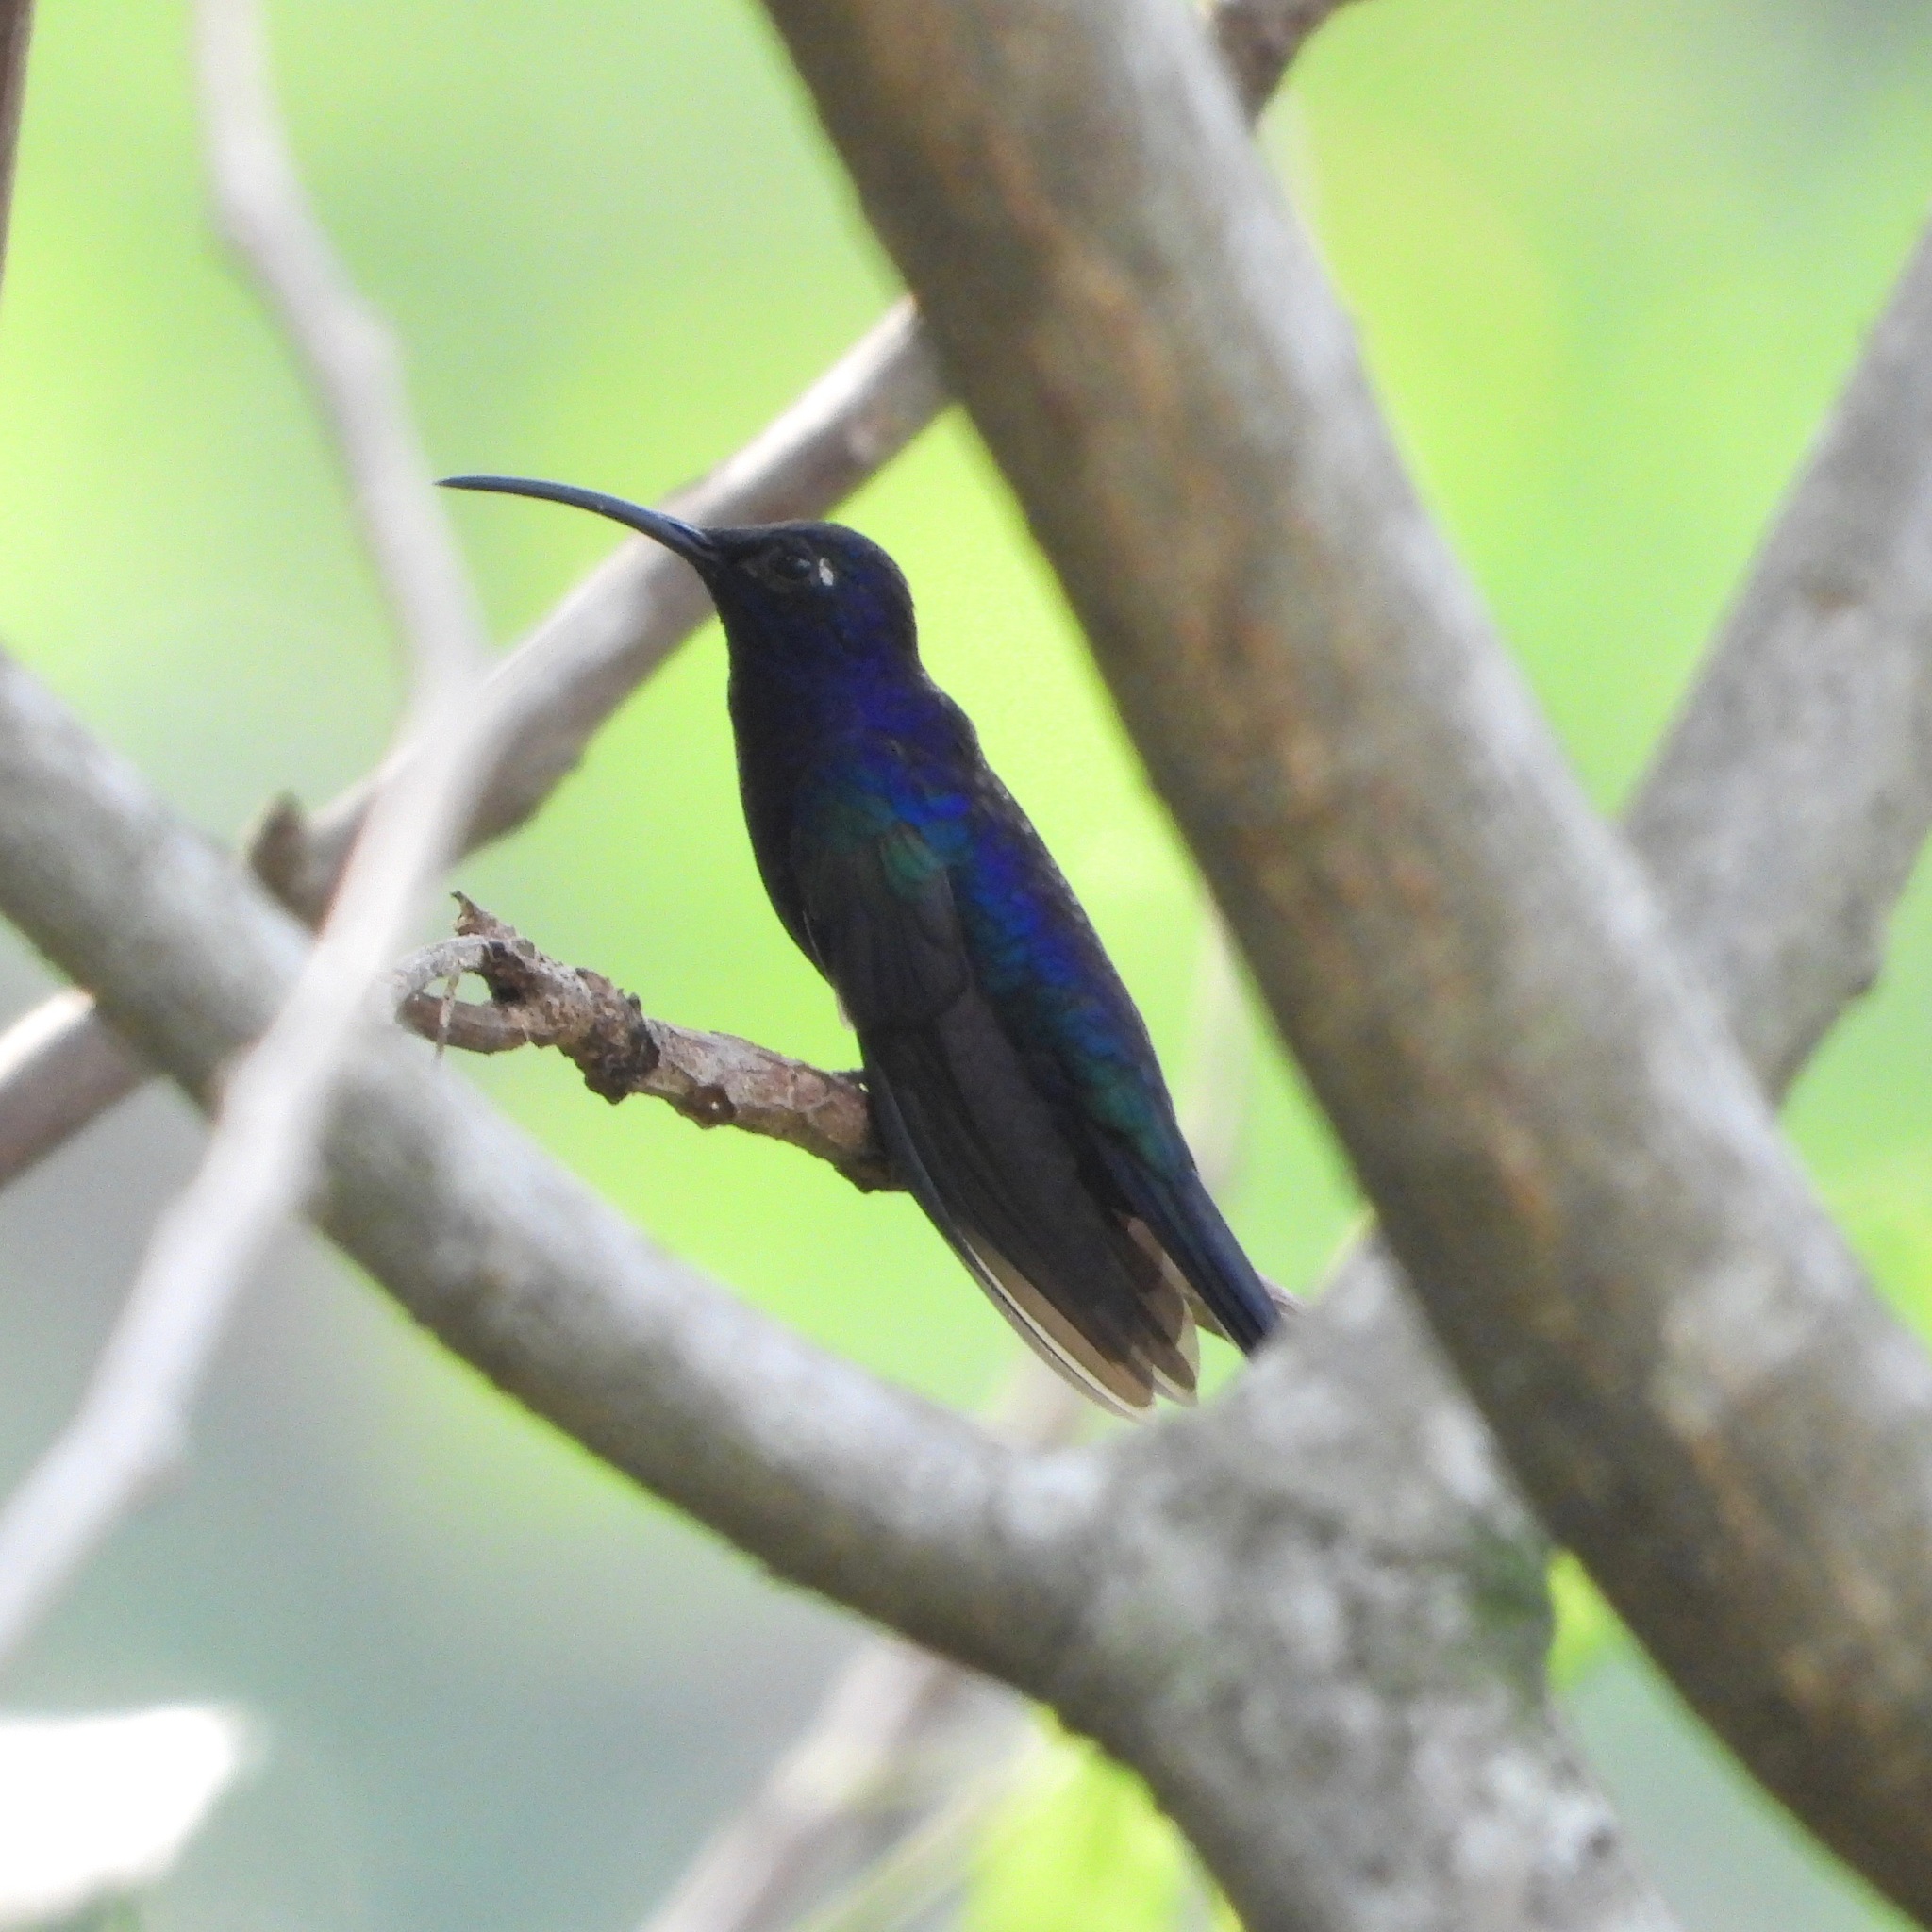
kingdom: Animalia
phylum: Chordata
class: Aves
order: Apodiformes
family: Trochilidae
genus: Campylopterus
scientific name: Campylopterus hemileucurus
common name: Violet sabrewing
